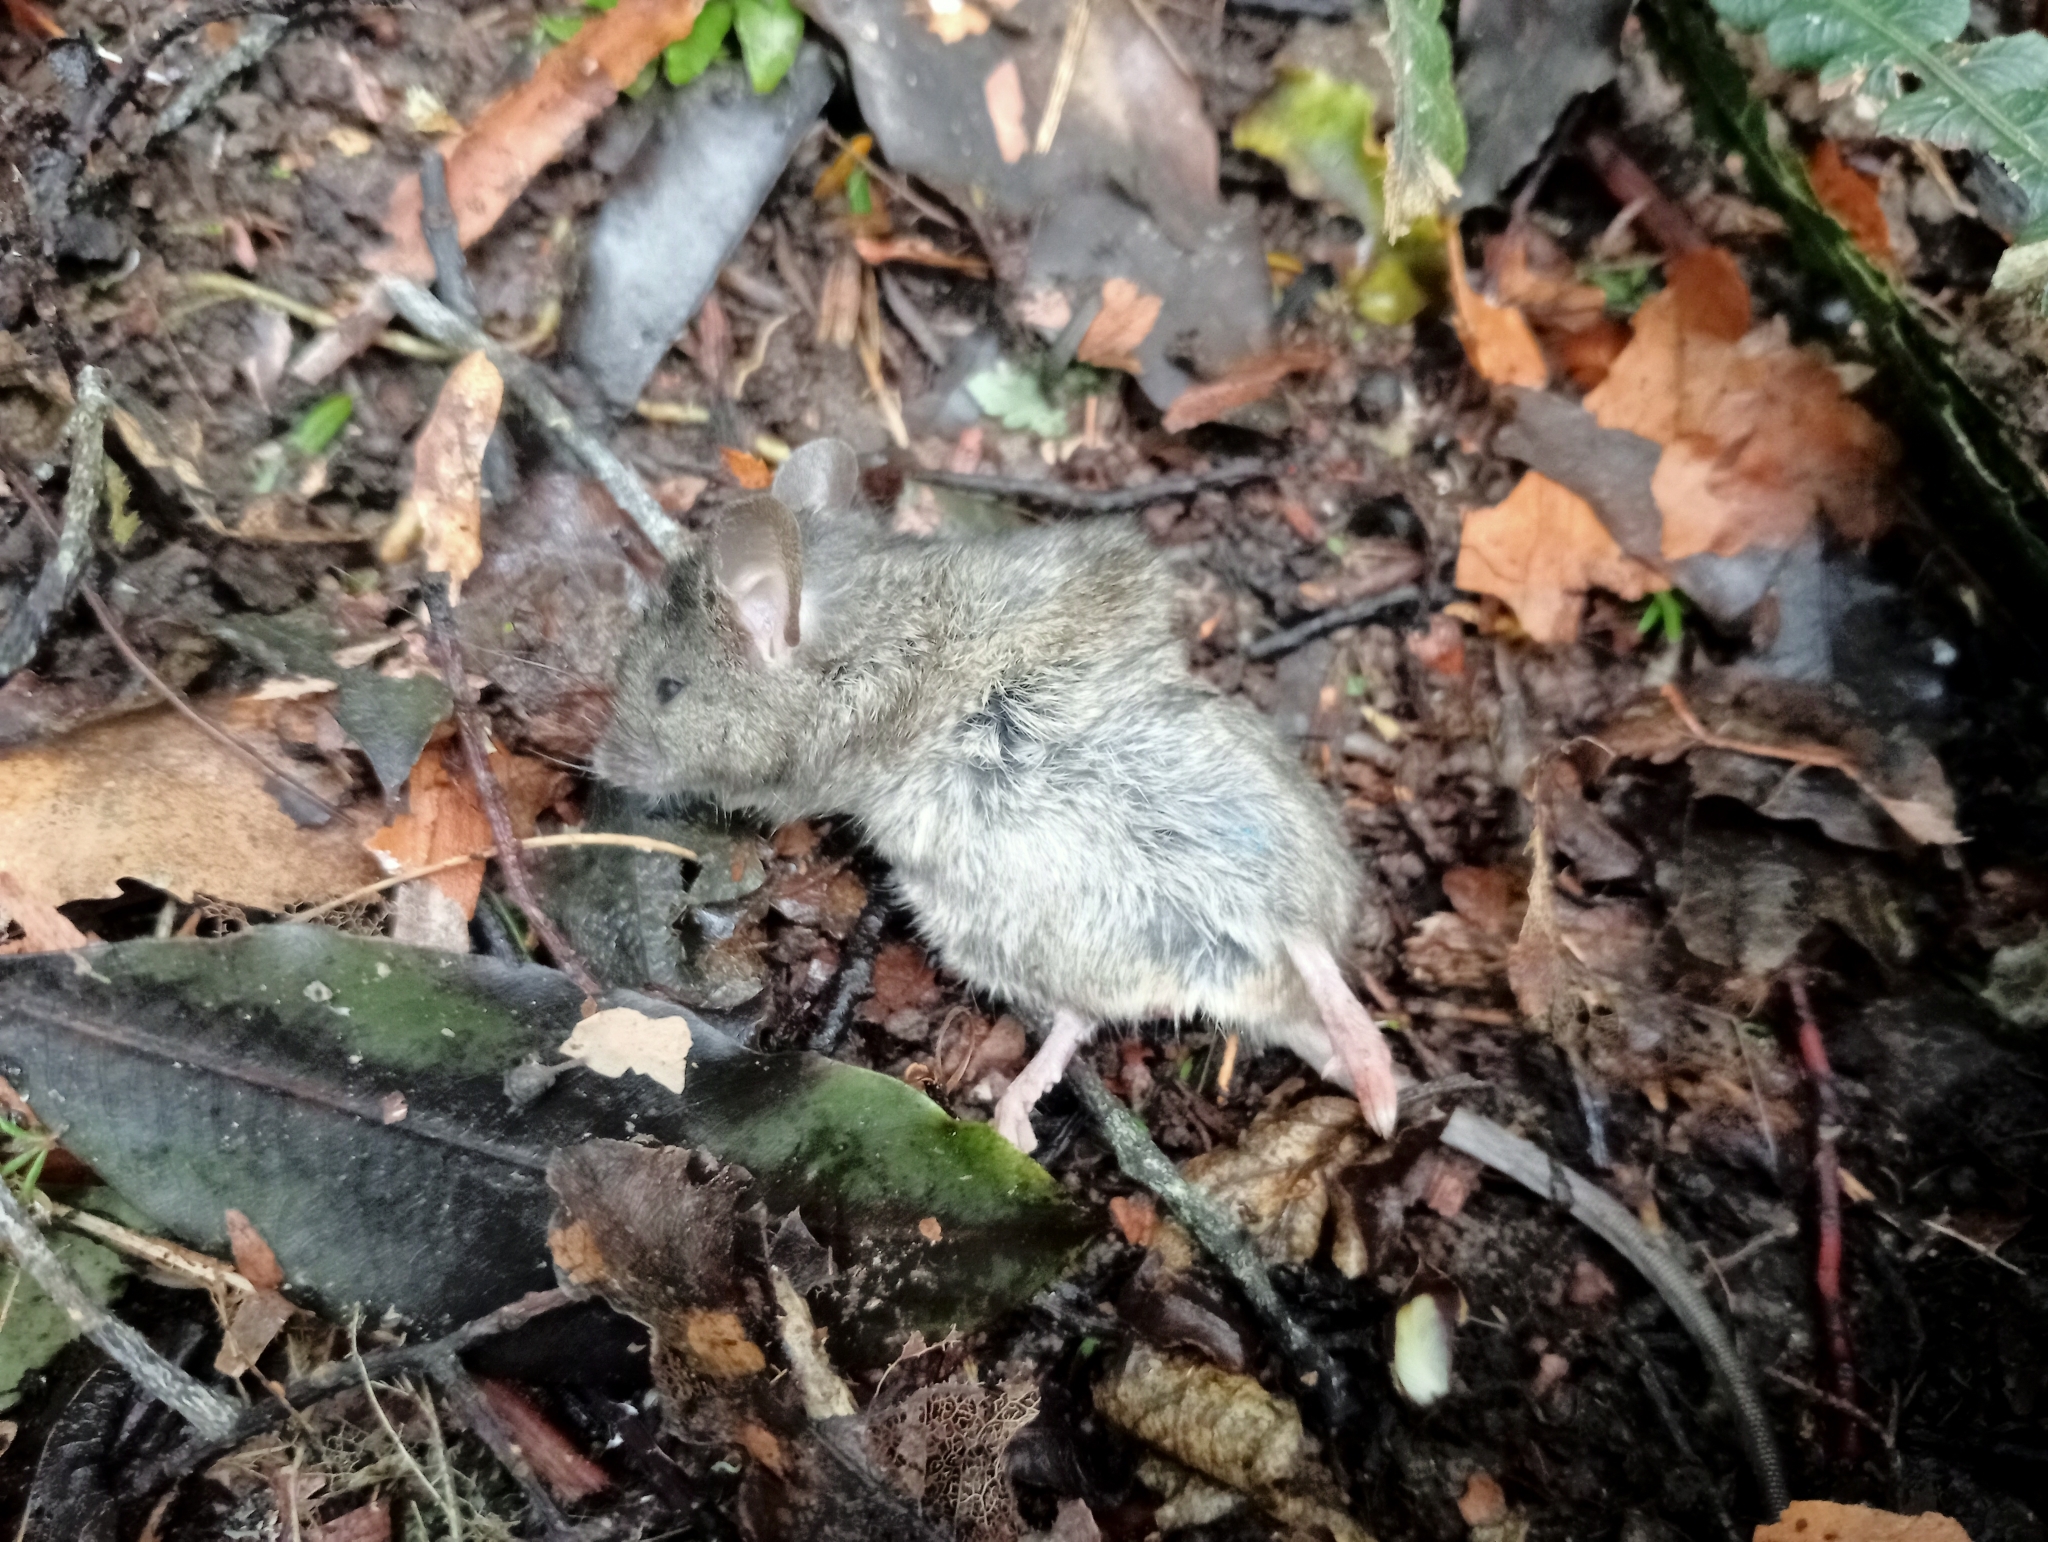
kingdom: Animalia
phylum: Chordata
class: Mammalia
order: Rodentia
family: Muridae
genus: Mus
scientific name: Mus musculus
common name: House mouse
